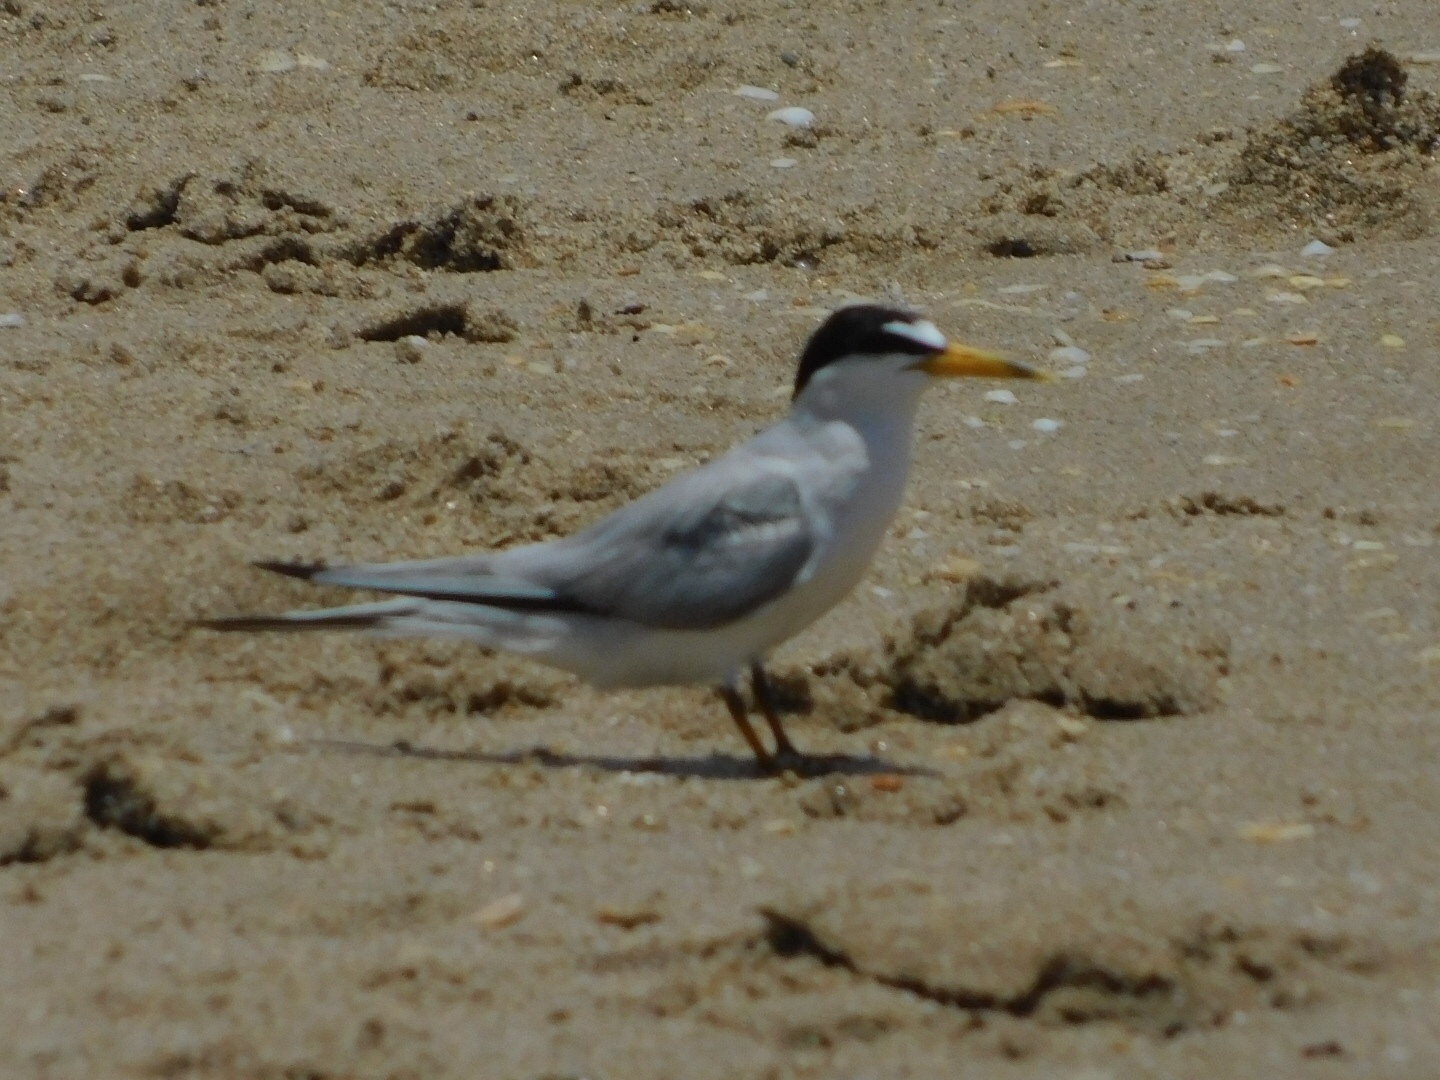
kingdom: Animalia
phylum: Chordata
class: Aves
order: Charadriiformes
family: Laridae
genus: Sternula
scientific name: Sternula antillarum
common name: Least tern
